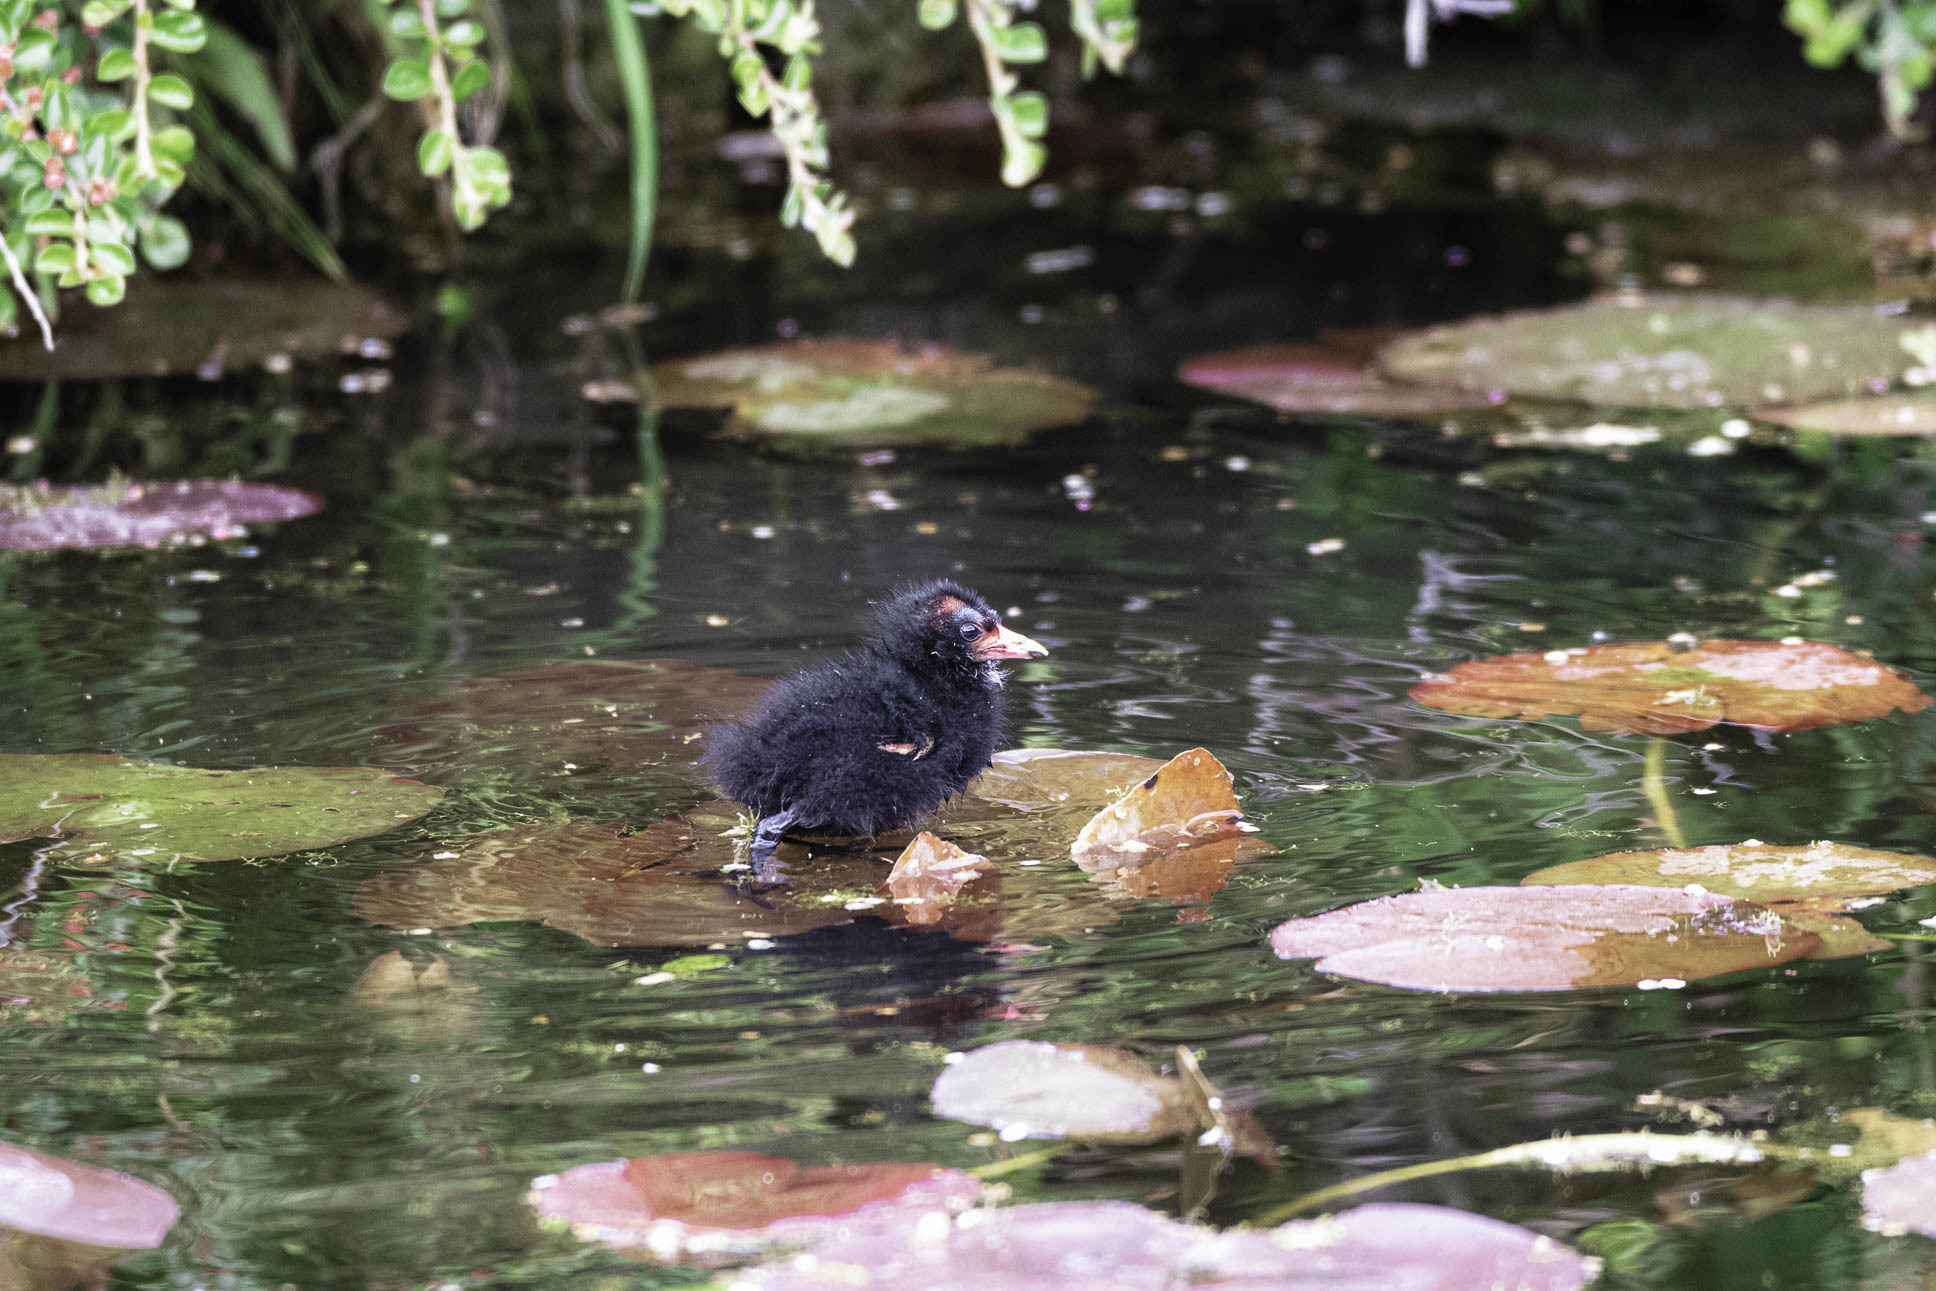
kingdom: Animalia
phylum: Chordata
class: Aves
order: Gruiformes
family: Rallidae
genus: Gallinula
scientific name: Gallinula chloropus
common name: Common moorhen
